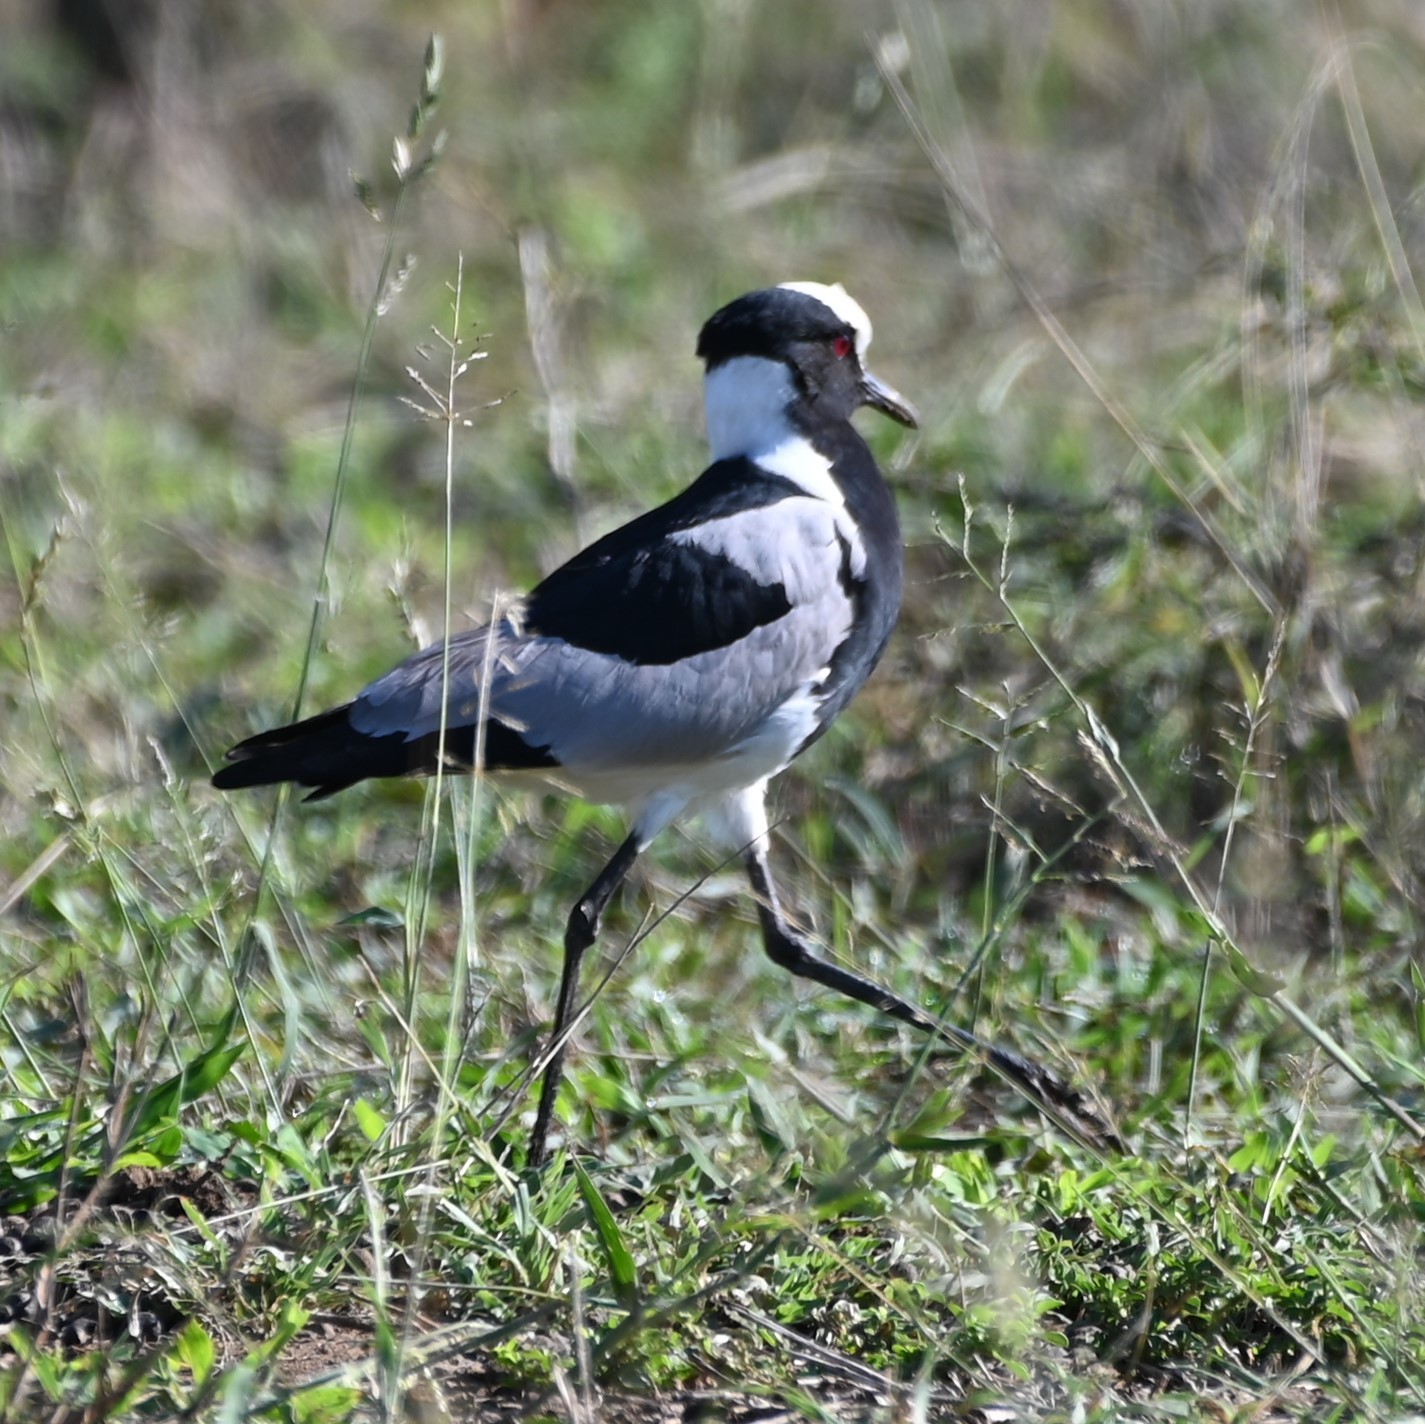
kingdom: Animalia
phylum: Chordata
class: Aves
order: Charadriiformes
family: Charadriidae
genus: Vanellus
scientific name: Vanellus armatus
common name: Blacksmith lapwing
